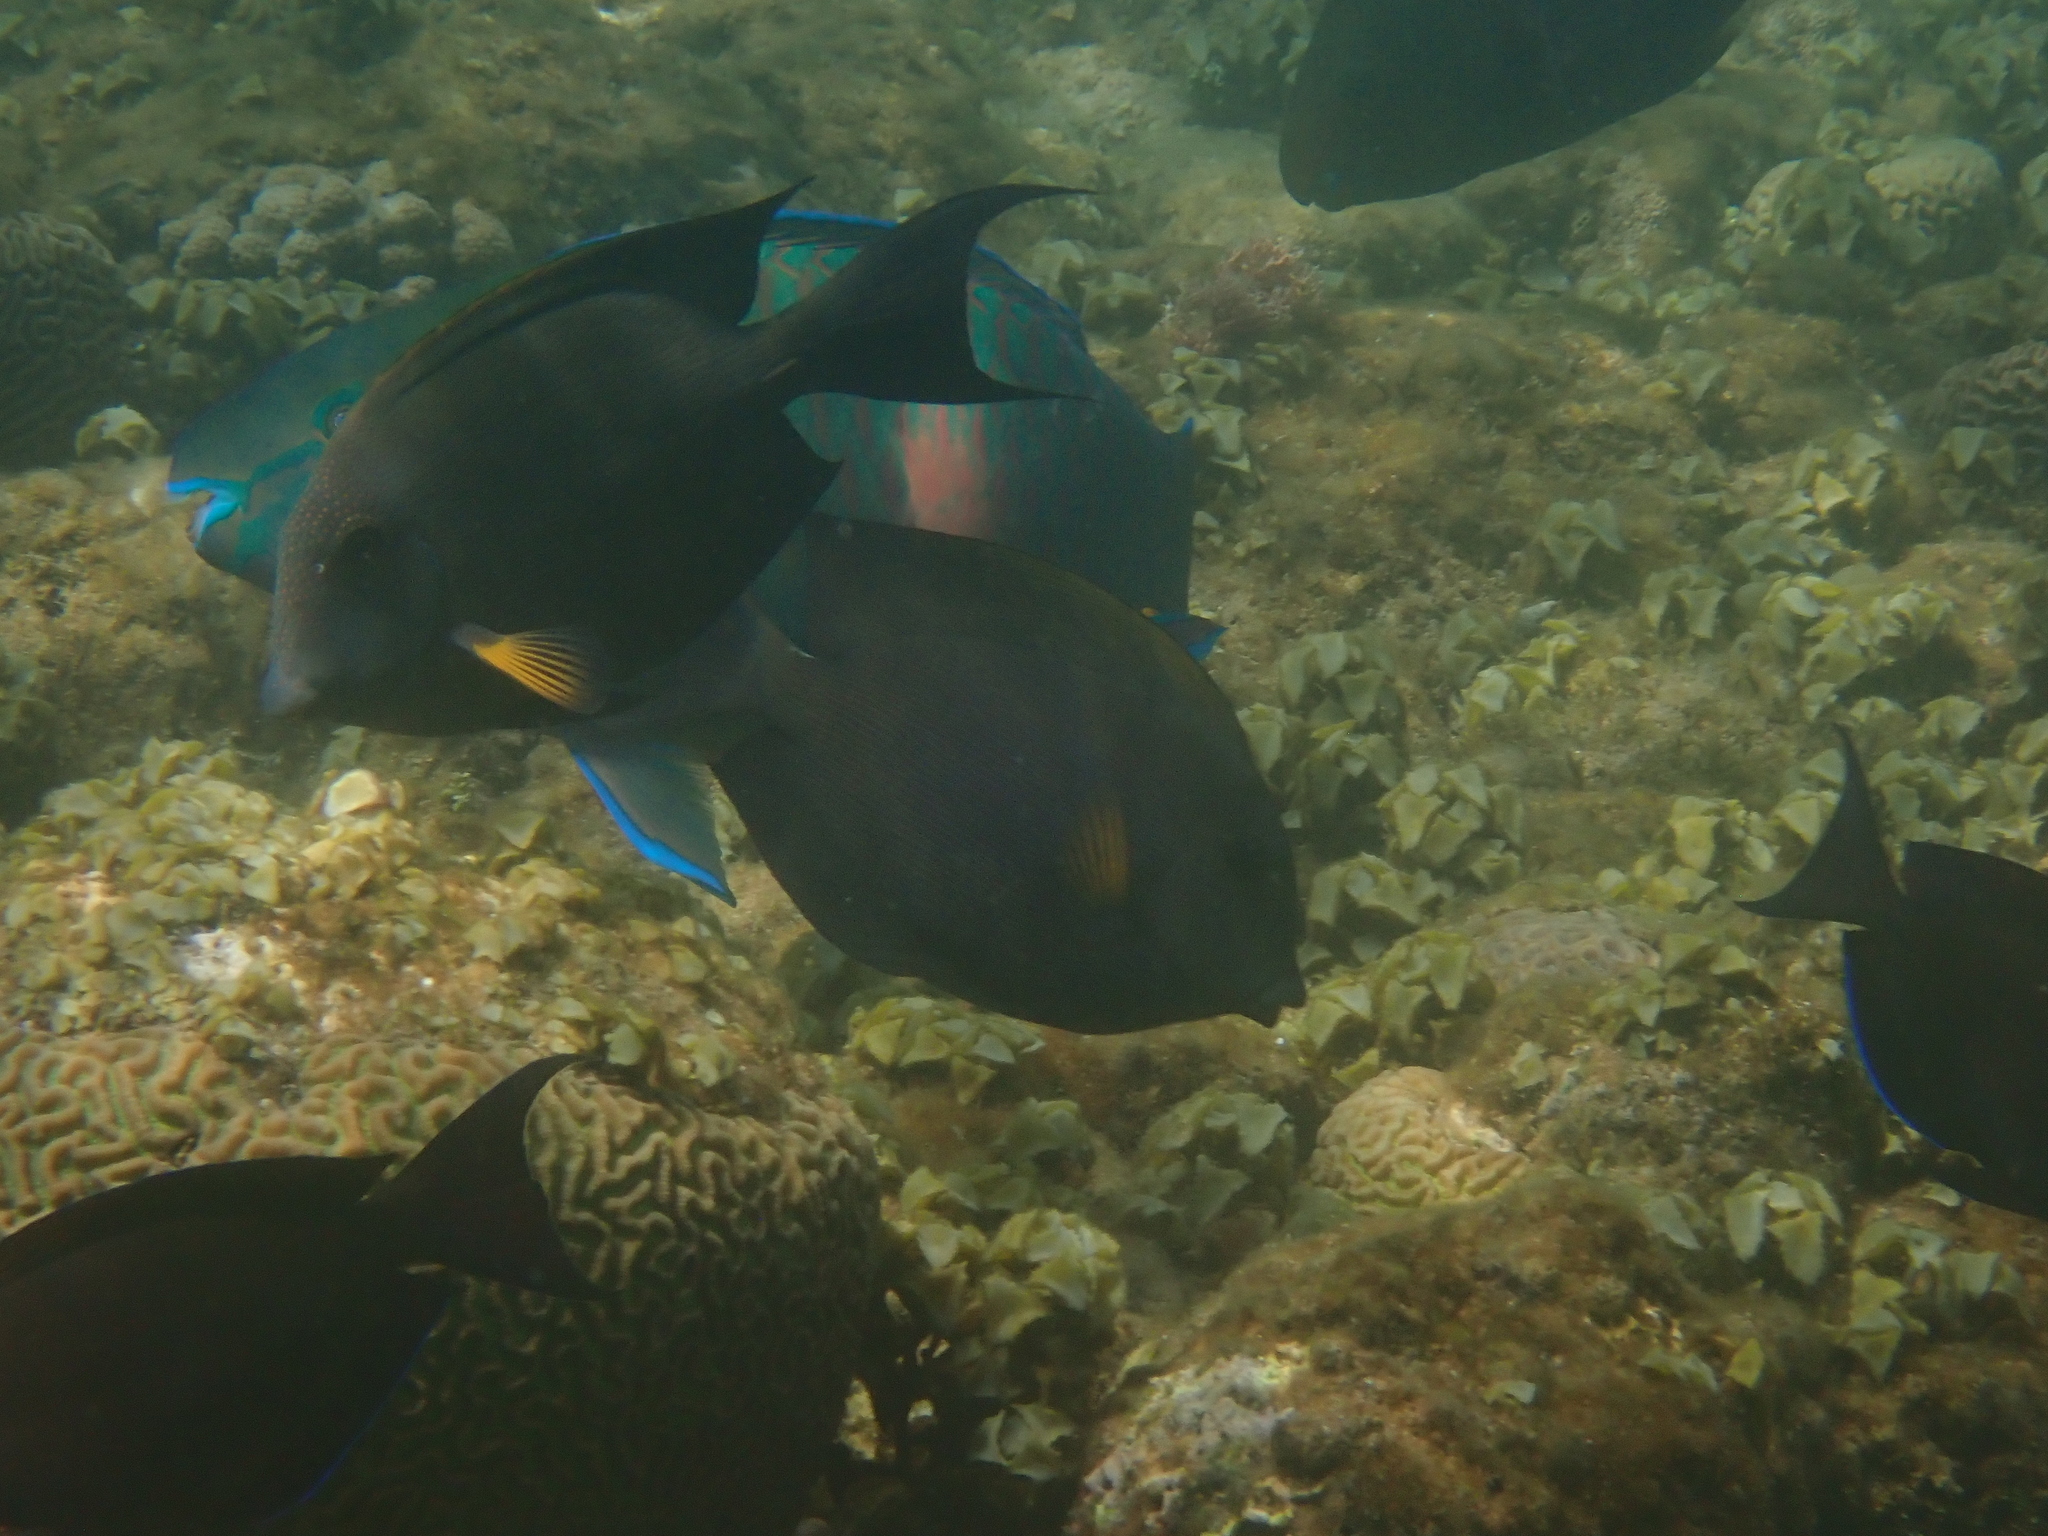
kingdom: Animalia
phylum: Chordata
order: Perciformes
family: Acanthuridae
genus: Ctenochaetus
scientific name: Ctenochaetus striatus
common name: Bristle-toothed surgeonfish
